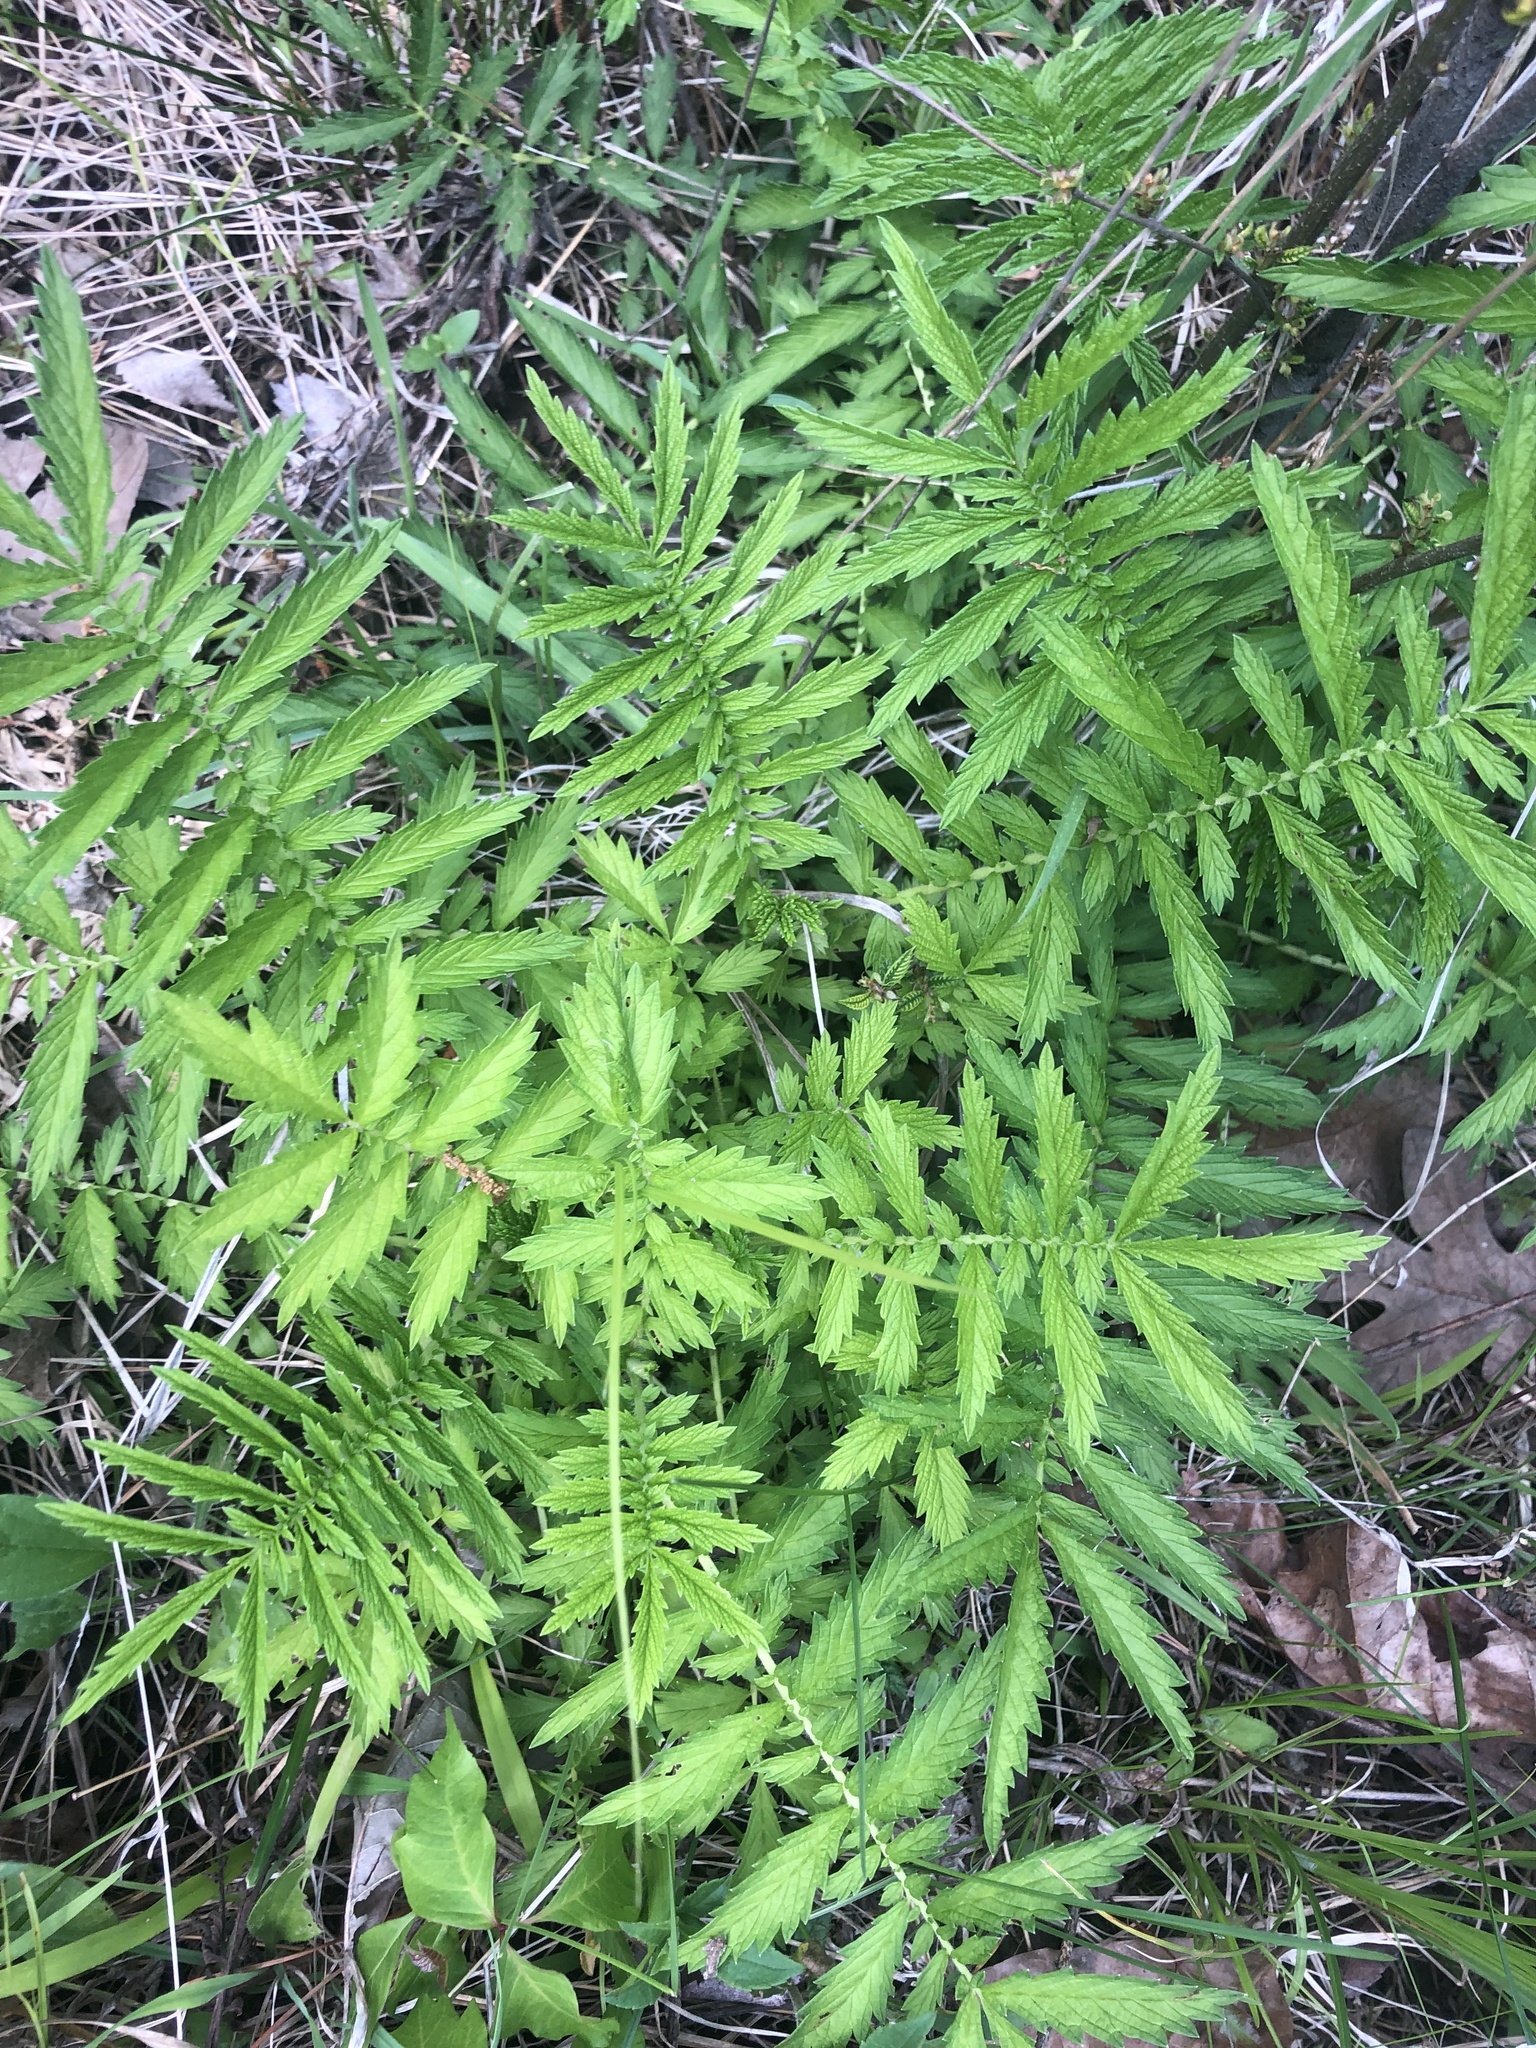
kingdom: Plantae
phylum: Tracheophyta
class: Magnoliopsida
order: Rosales
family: Rosaceae
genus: Agrimonia
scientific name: Agrimonia parviflora
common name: Harvest-lice
